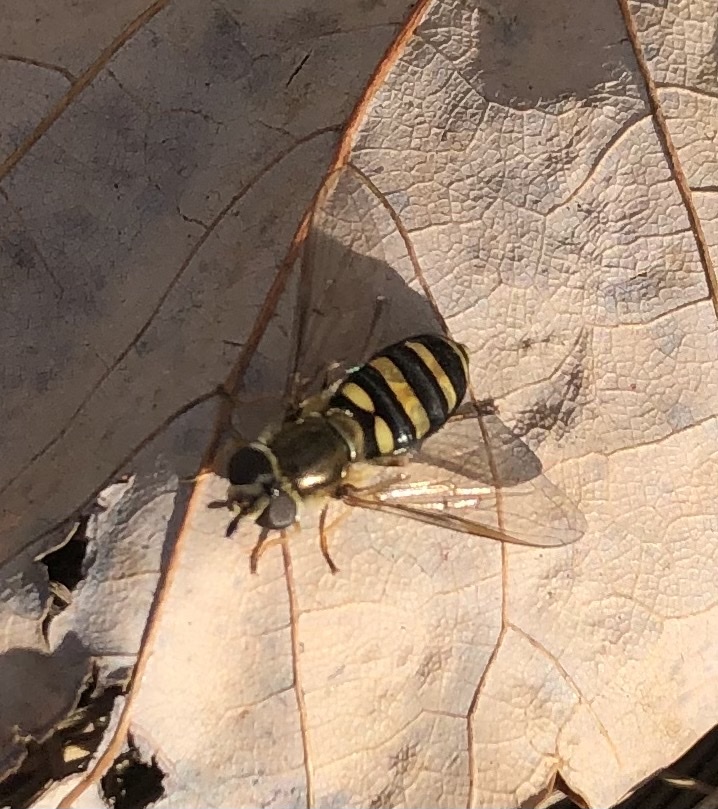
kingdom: Animalia
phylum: Arthropoda
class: Insecta
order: Diptera
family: Syrphidae
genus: Eupeodes
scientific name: Eupeodes
